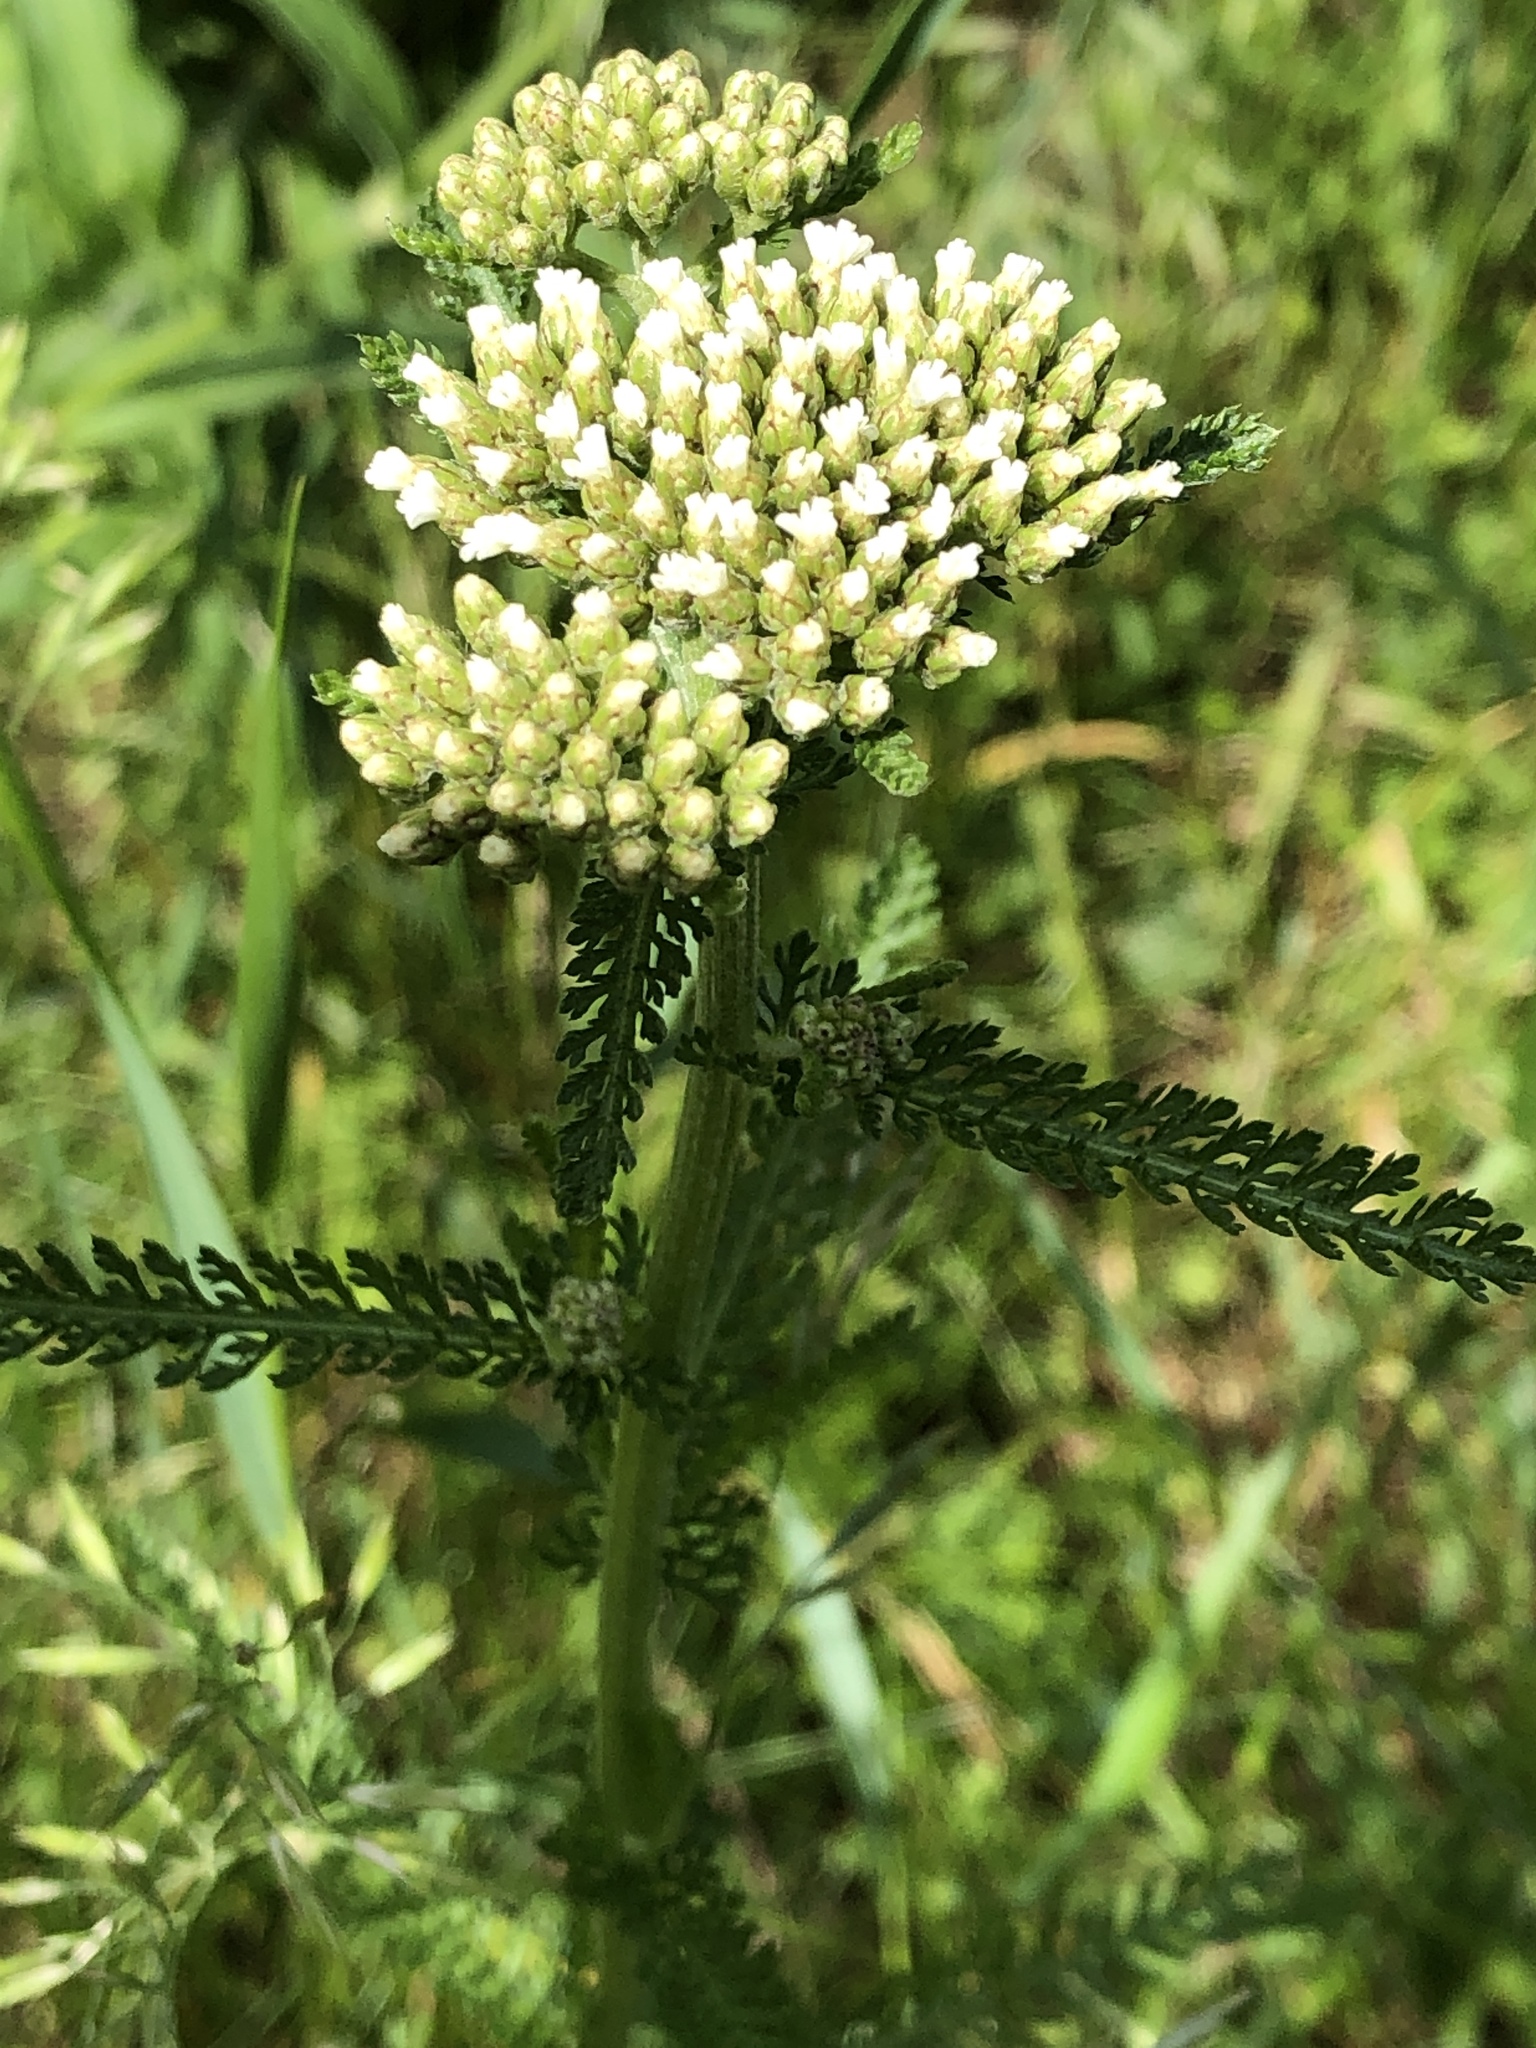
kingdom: Plantae
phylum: Tracheophyta
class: Magnoliopsida
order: Asterales
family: Asteraceae
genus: Achillea
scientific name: Achillea millefolium
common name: Yarrow
